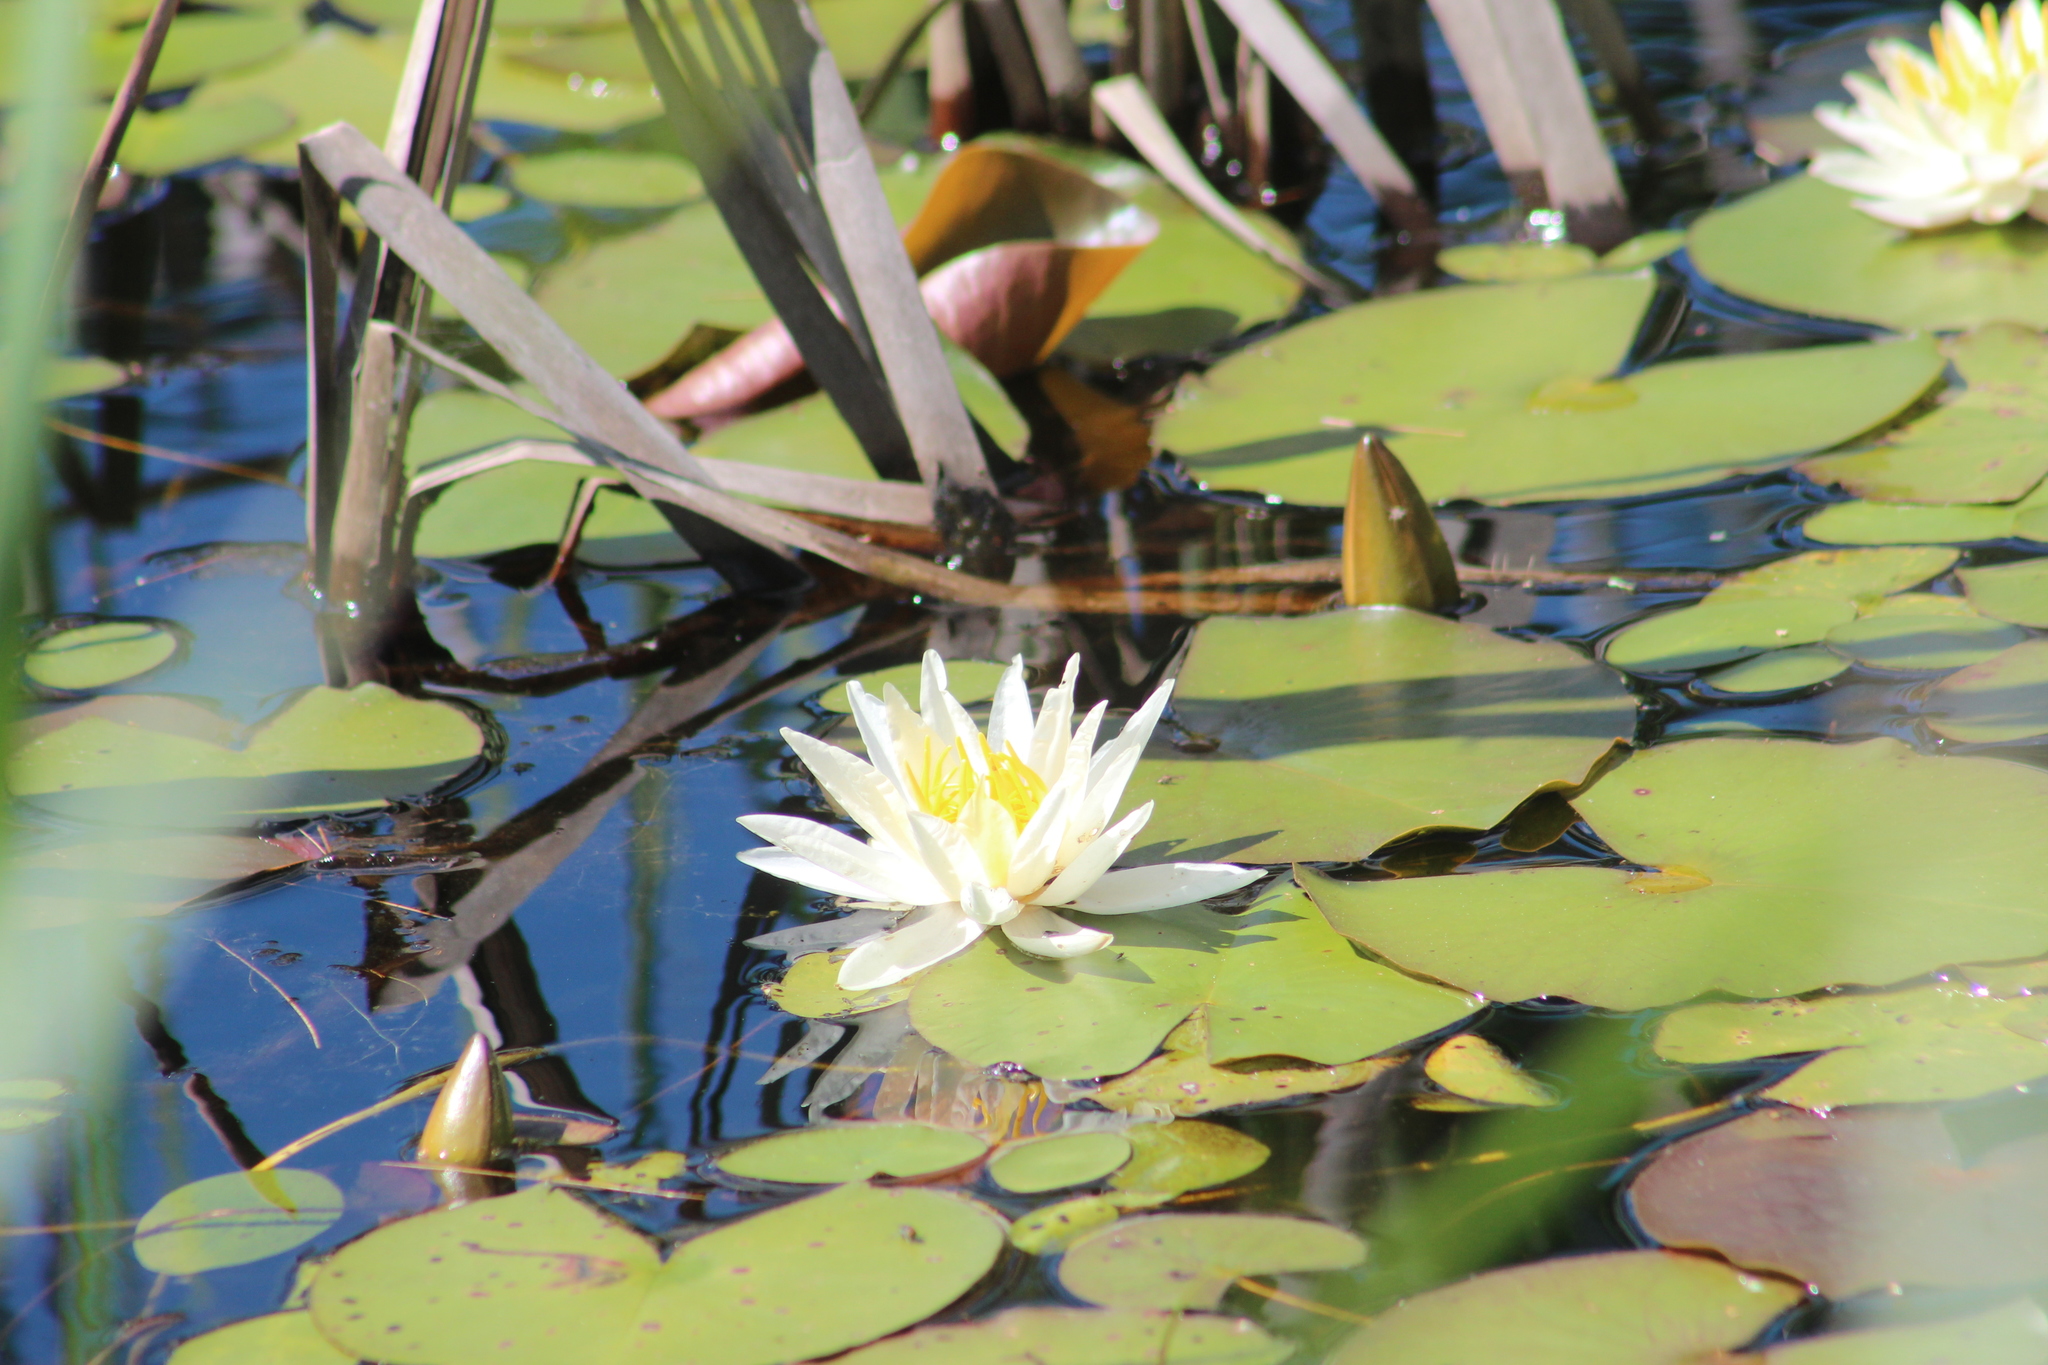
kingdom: Plantae
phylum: Tracheophyta
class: Magnoliopsida
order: Nymphaeales
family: Nymphaeaceae
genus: Nymphaea
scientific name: Nymphaea odorata
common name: Fragrant water-lily
